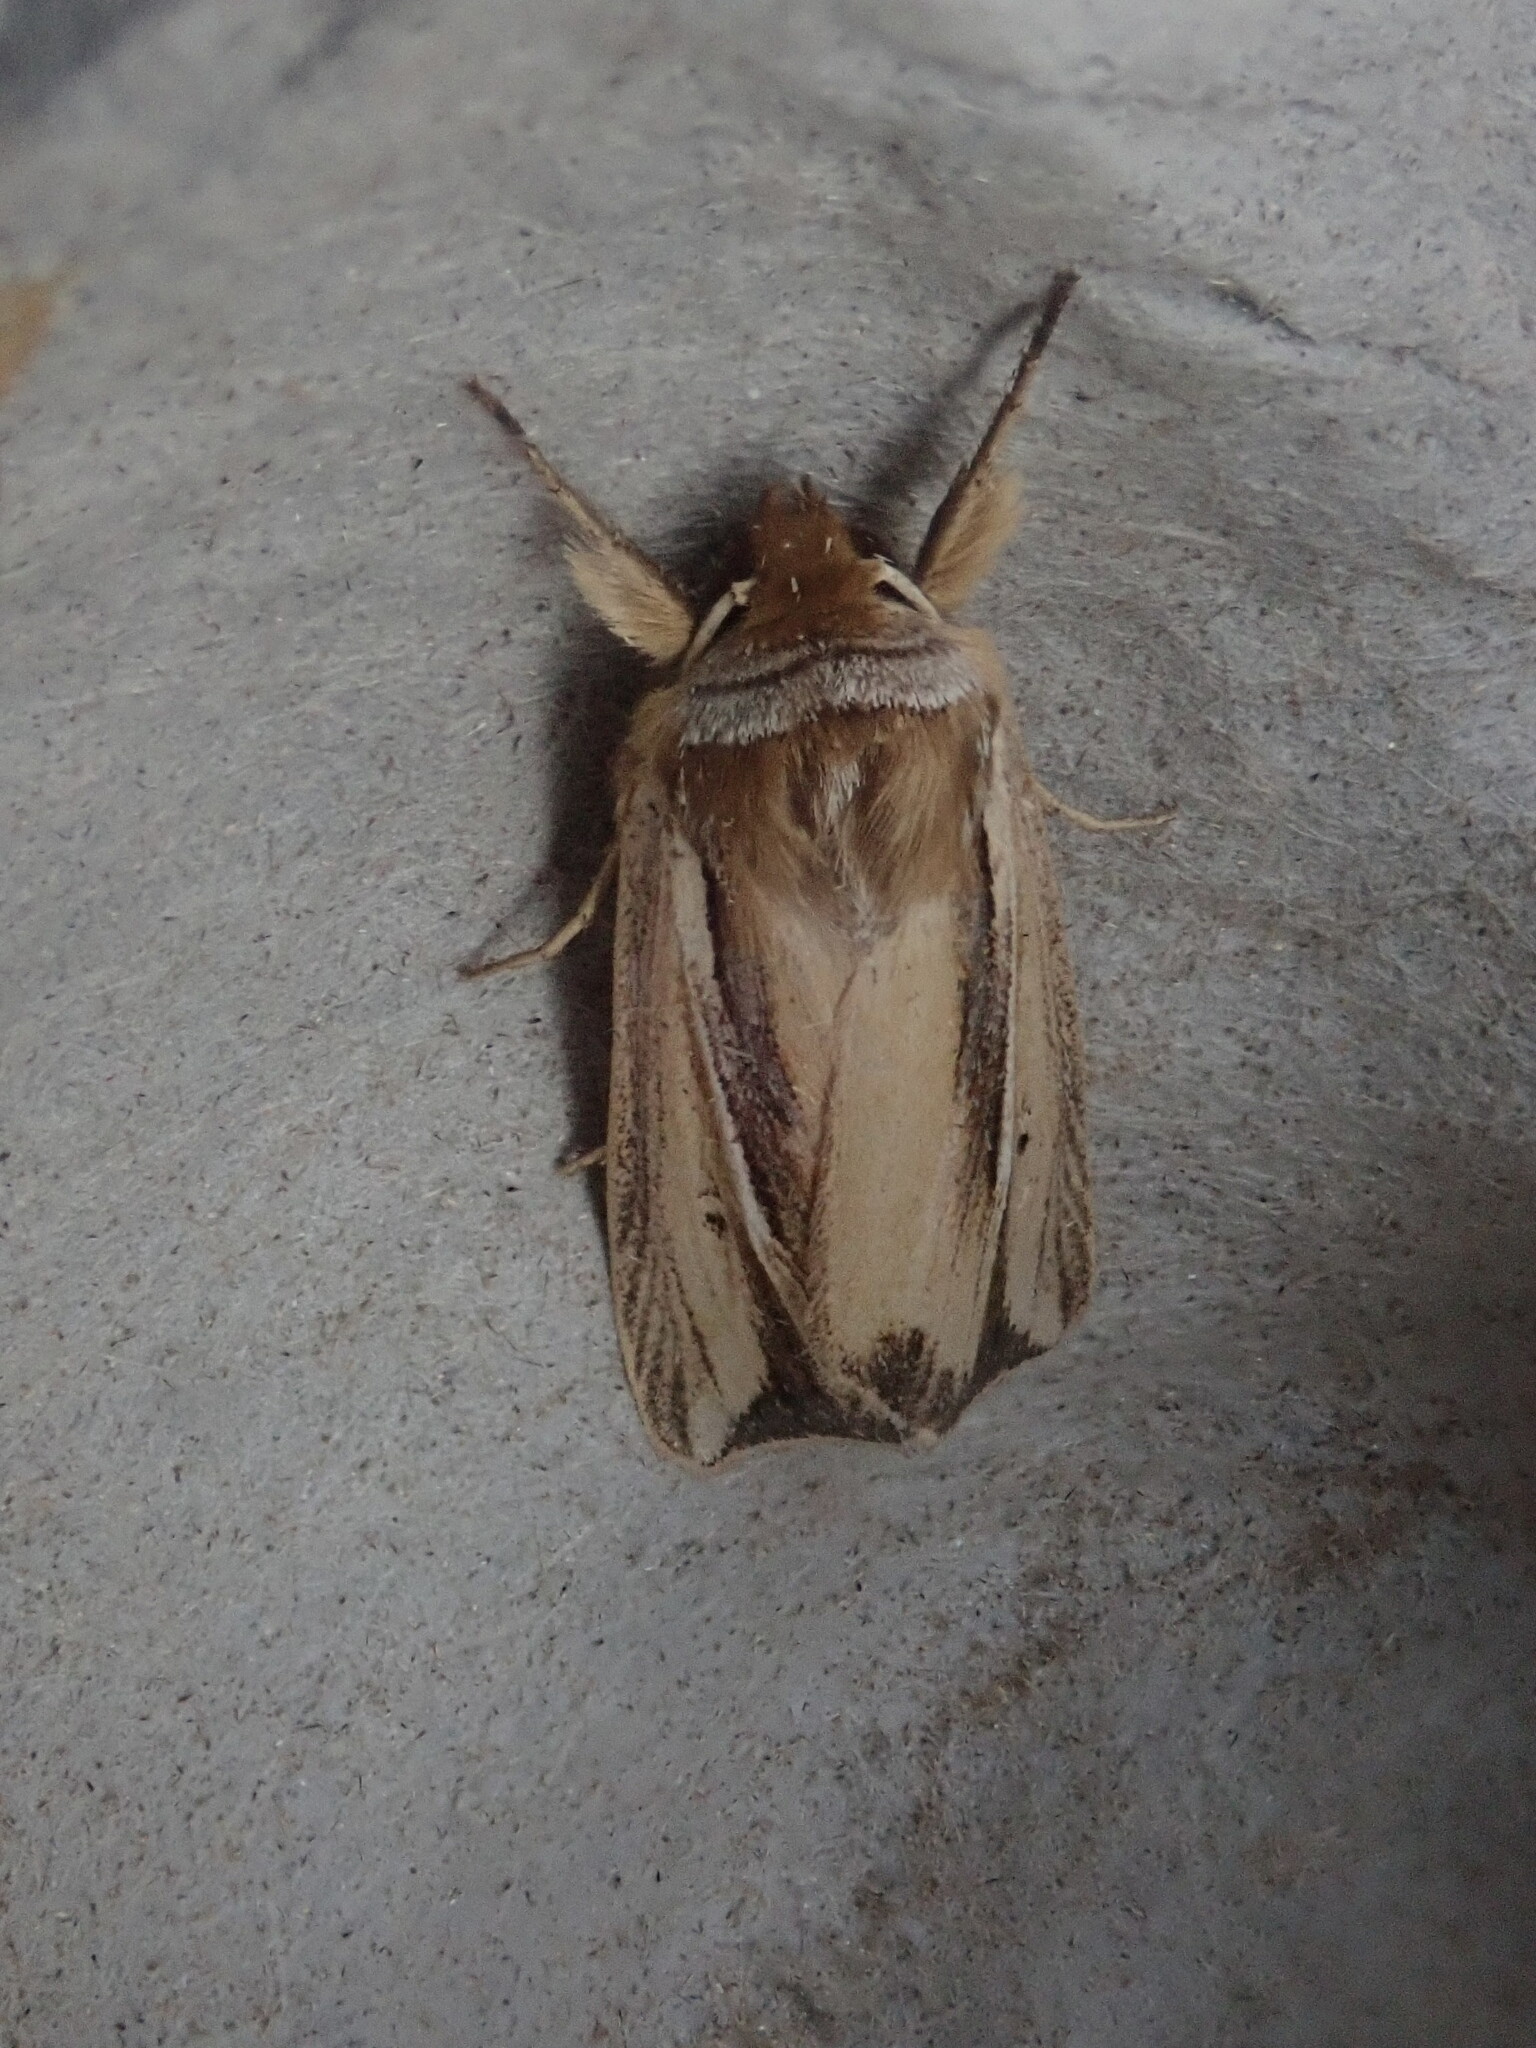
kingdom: Animalia
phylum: Arthropoda
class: Insecta
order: Lepidoptera
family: Noctuidae
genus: Dargida
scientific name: Dargida diffusa
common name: Wheat head armyworm
